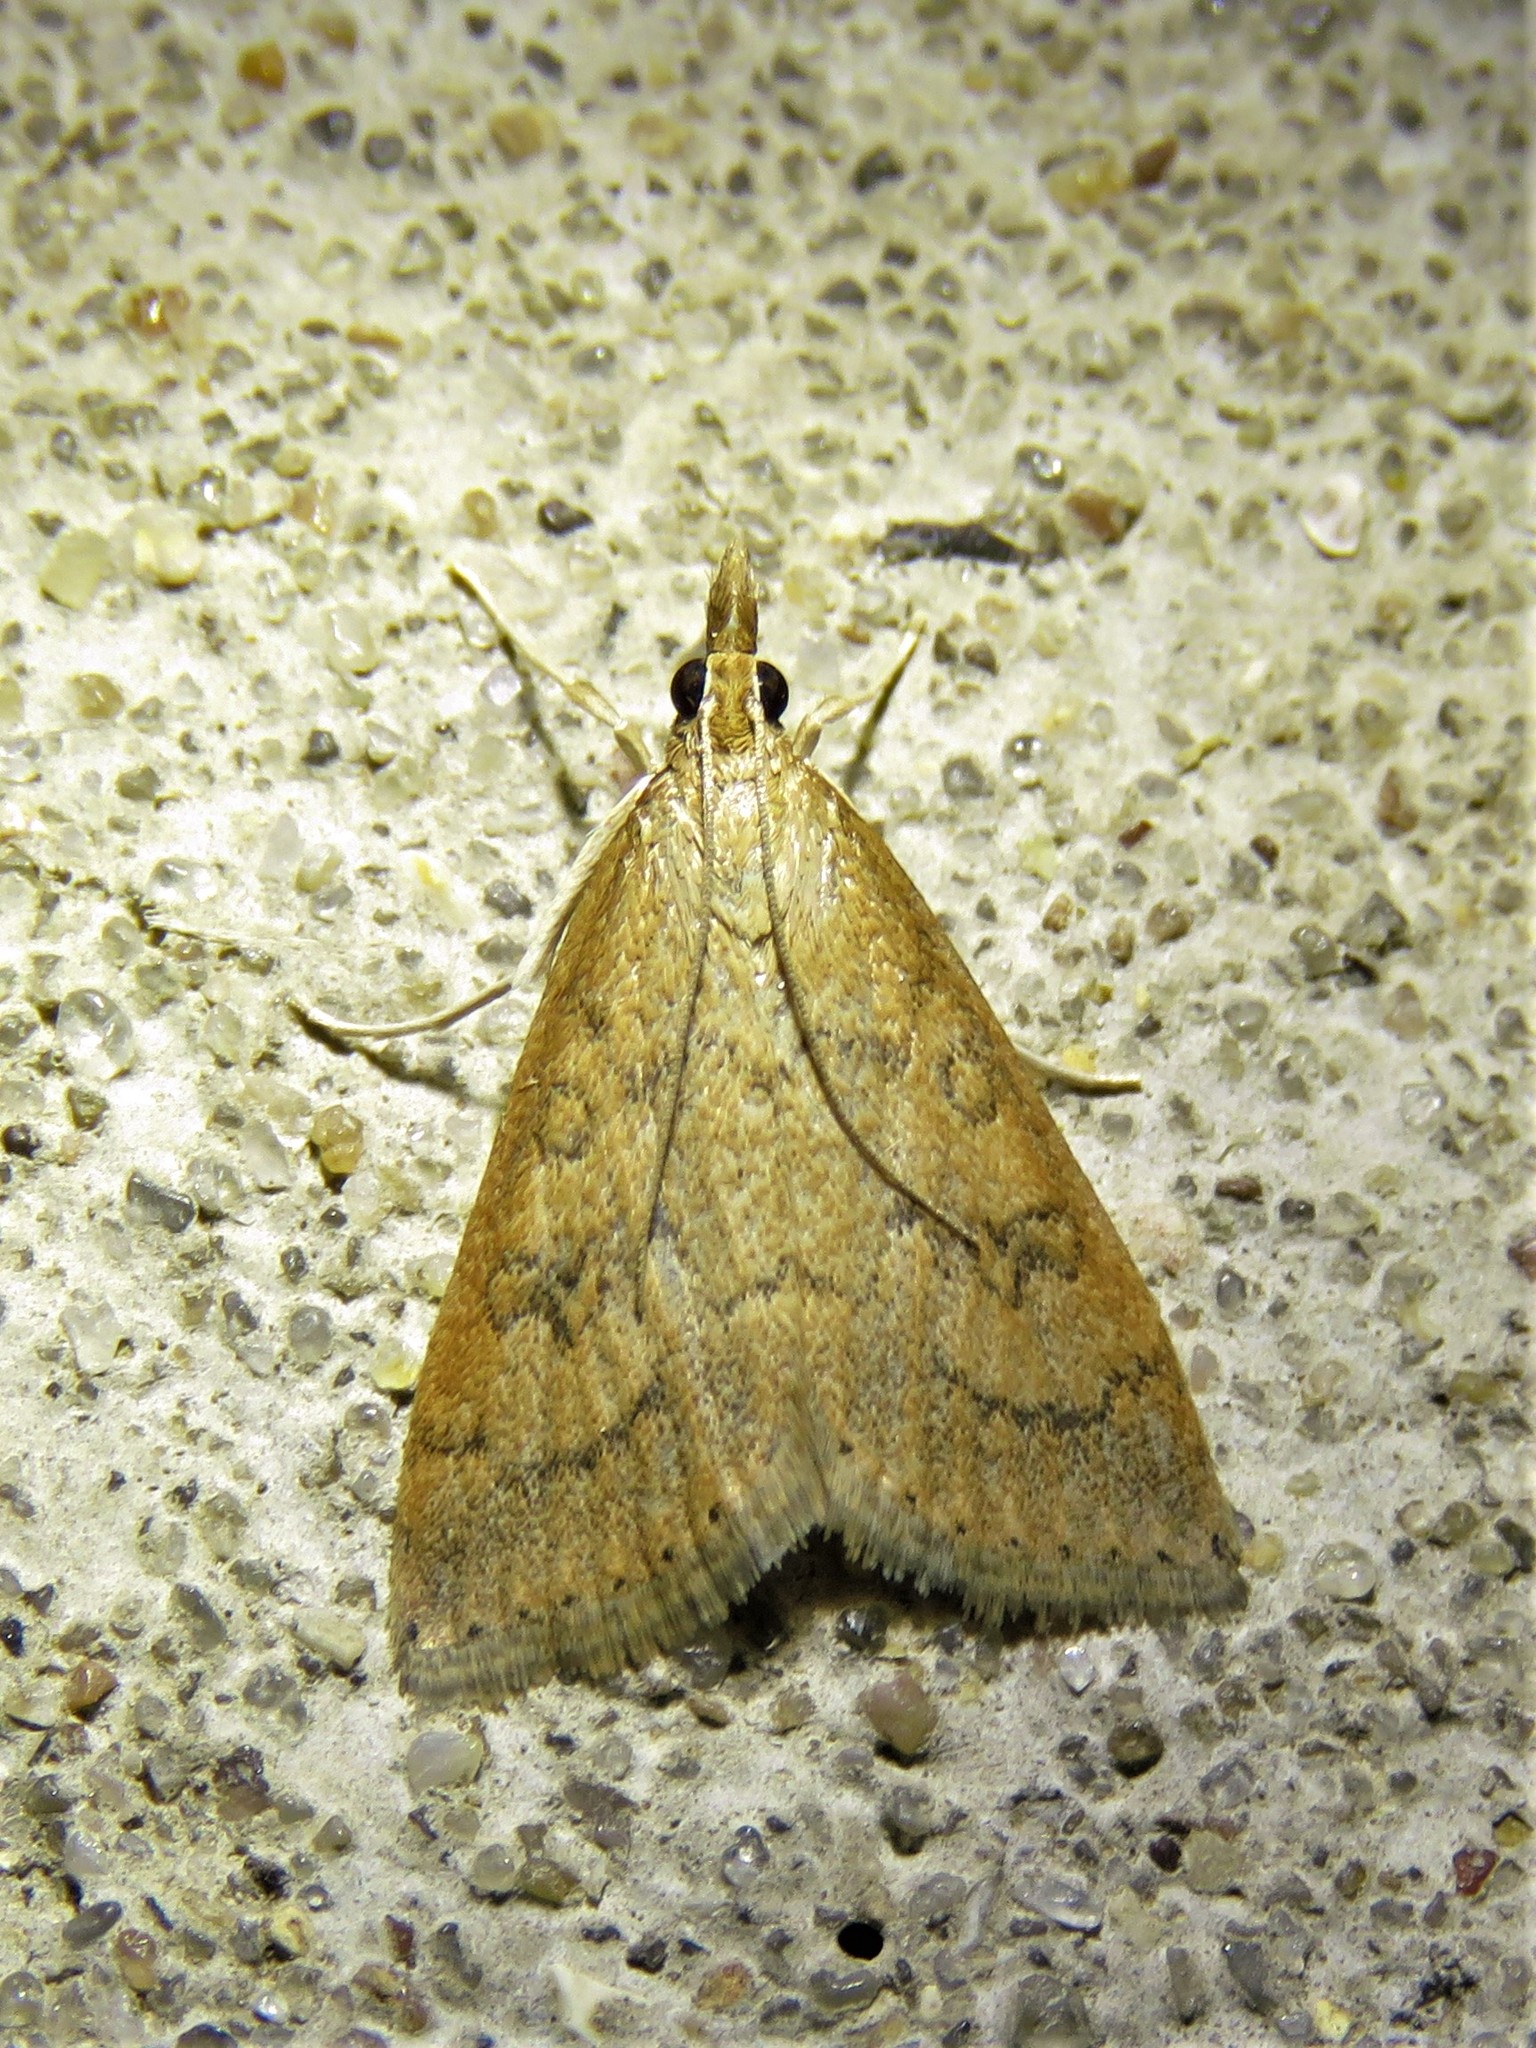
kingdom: Animalia
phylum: Arthropoda
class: Insecta
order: Lepidoptera
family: Crambidae
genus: Udea
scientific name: Udea rubigalis
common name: Celery leaftier moth
